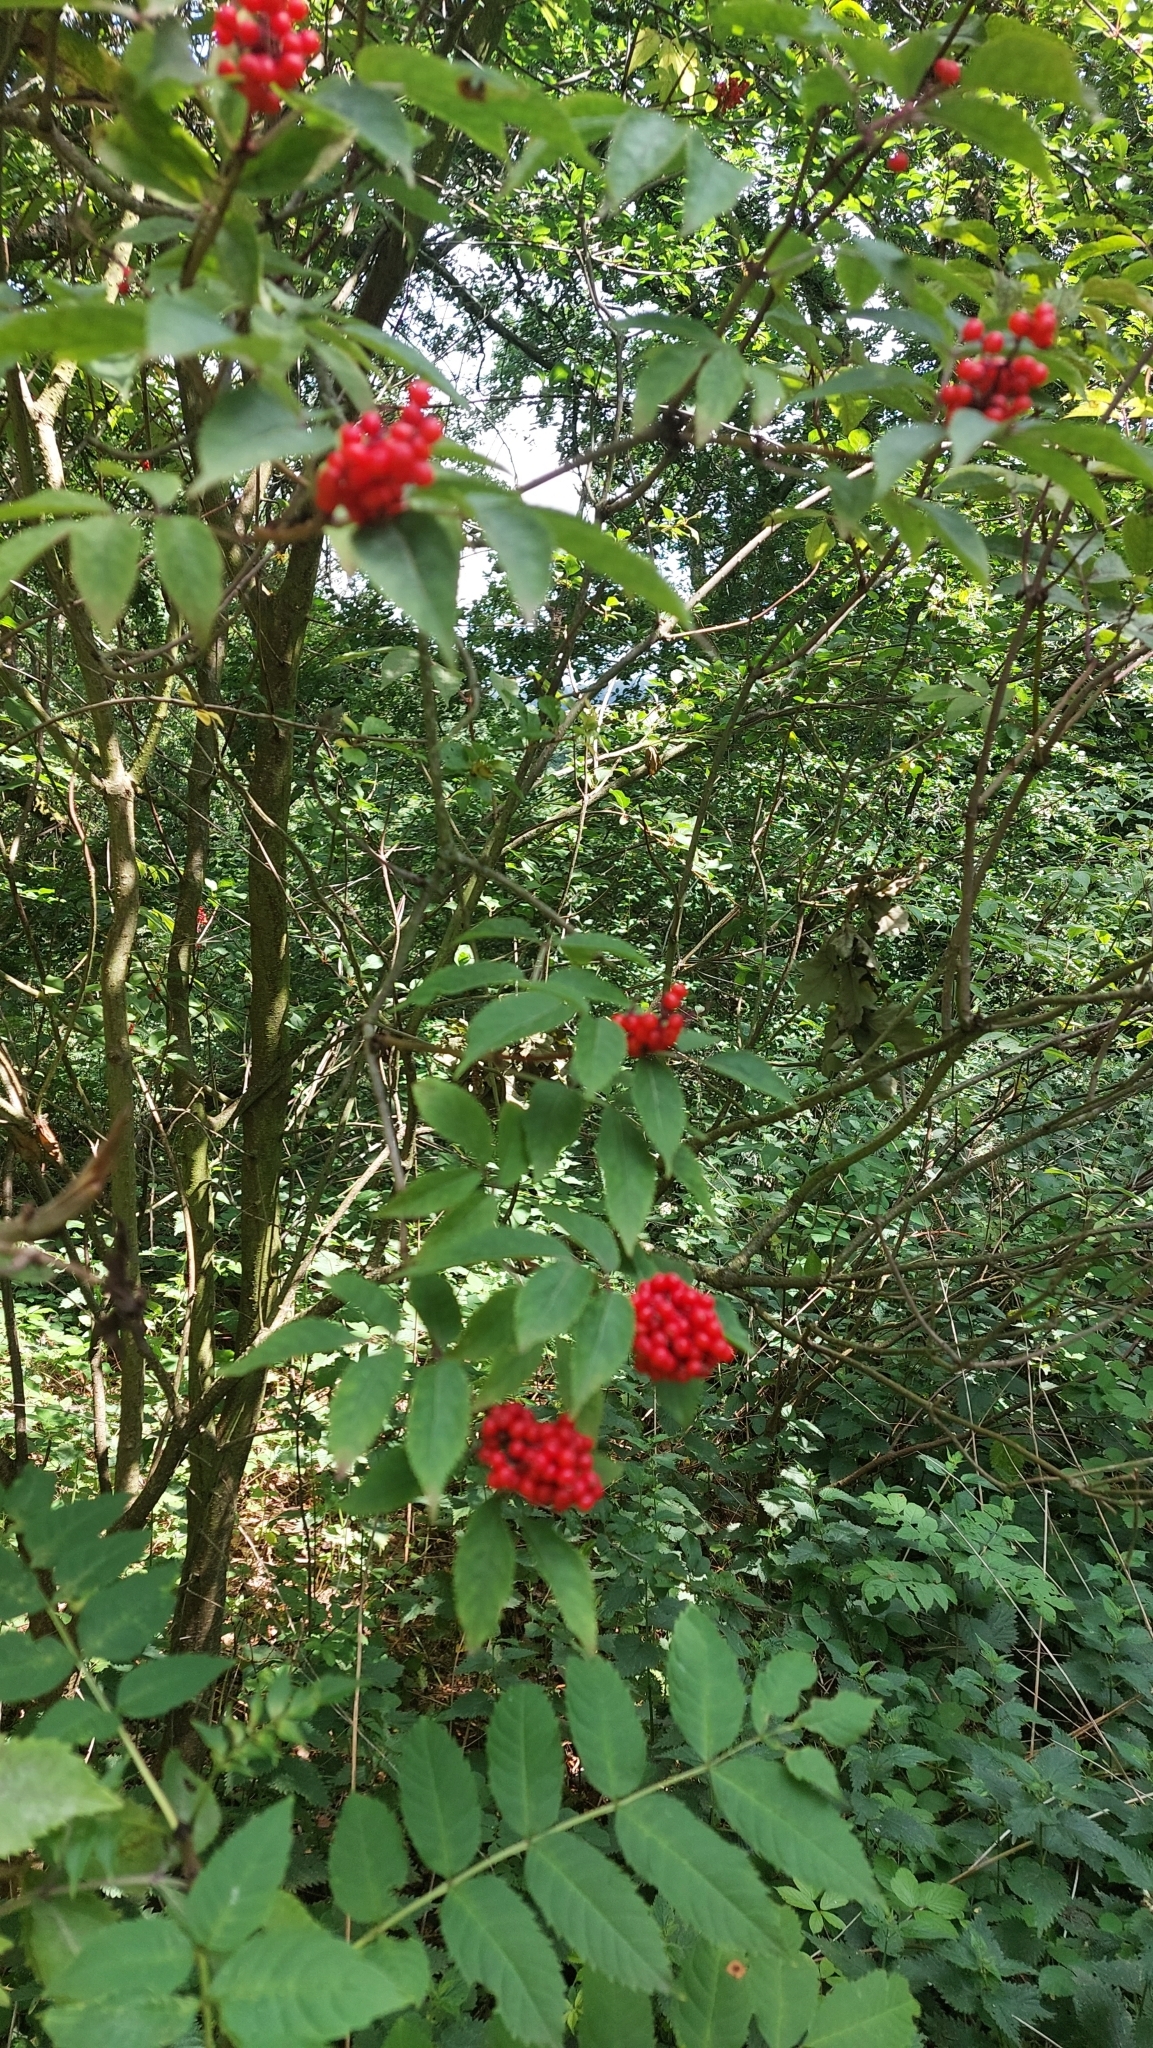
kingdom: Plantae
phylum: Tracheophyta
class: Magnoliopsida
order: Dipsacales
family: Viburnaceae
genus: Sambucus
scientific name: Sambucus racemosa
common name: Red-berried elder
